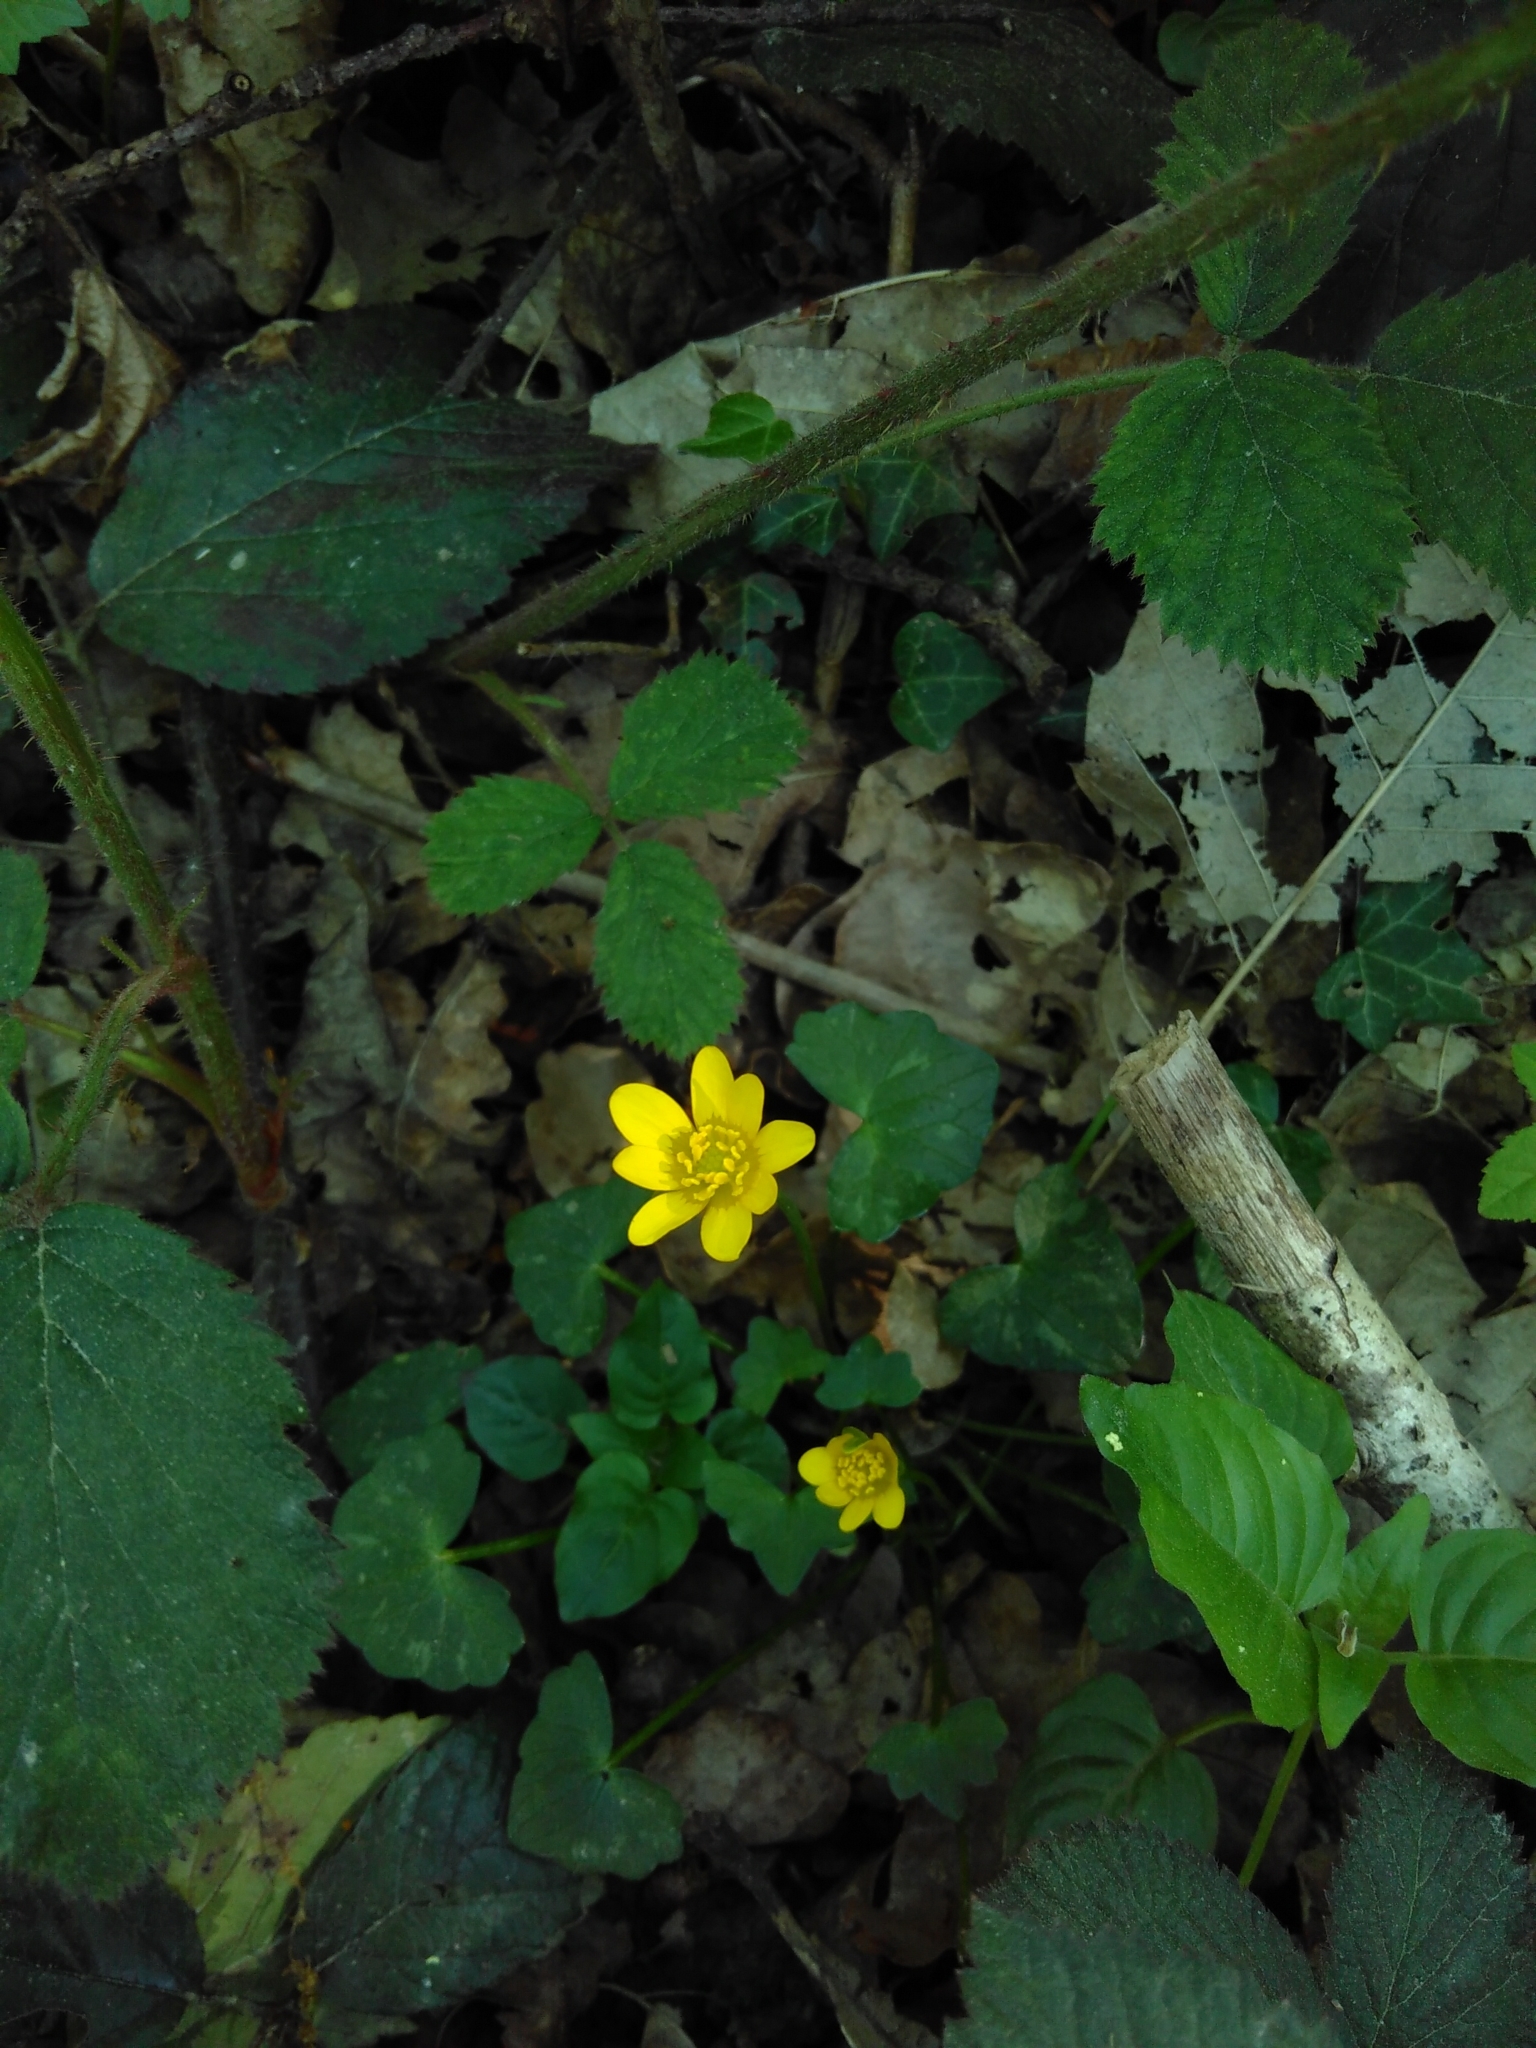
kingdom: Plantae
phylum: Tracheophyta
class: Magnoliopsida
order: Ranunculales
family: Ranunculaceae
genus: Ficaria
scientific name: Ficaria verna
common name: Lesser celandine
